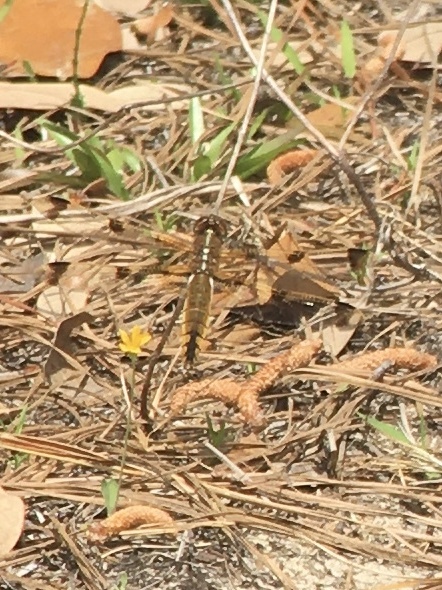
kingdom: Animalia
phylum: Arthropoda
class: Insecta
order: Odonata
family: Libellulidae
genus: Libellula
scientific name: Libellula semifasciata
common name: Painted skimmer
